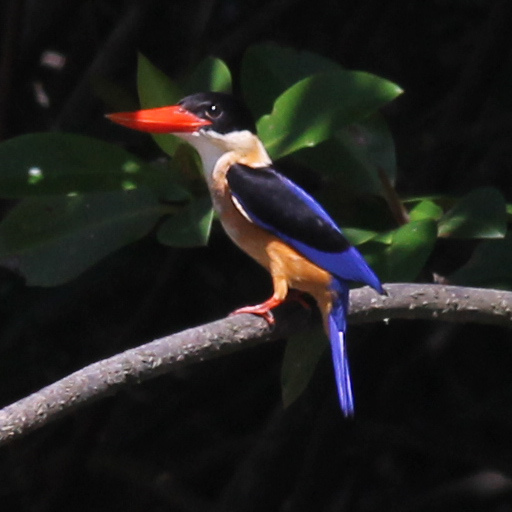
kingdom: Animalia
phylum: Chordata
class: Aves
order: Coraciiformes
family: Alcedinidae
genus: Halcyon
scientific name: Halcyon pileata
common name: Black-capped kingfisher
